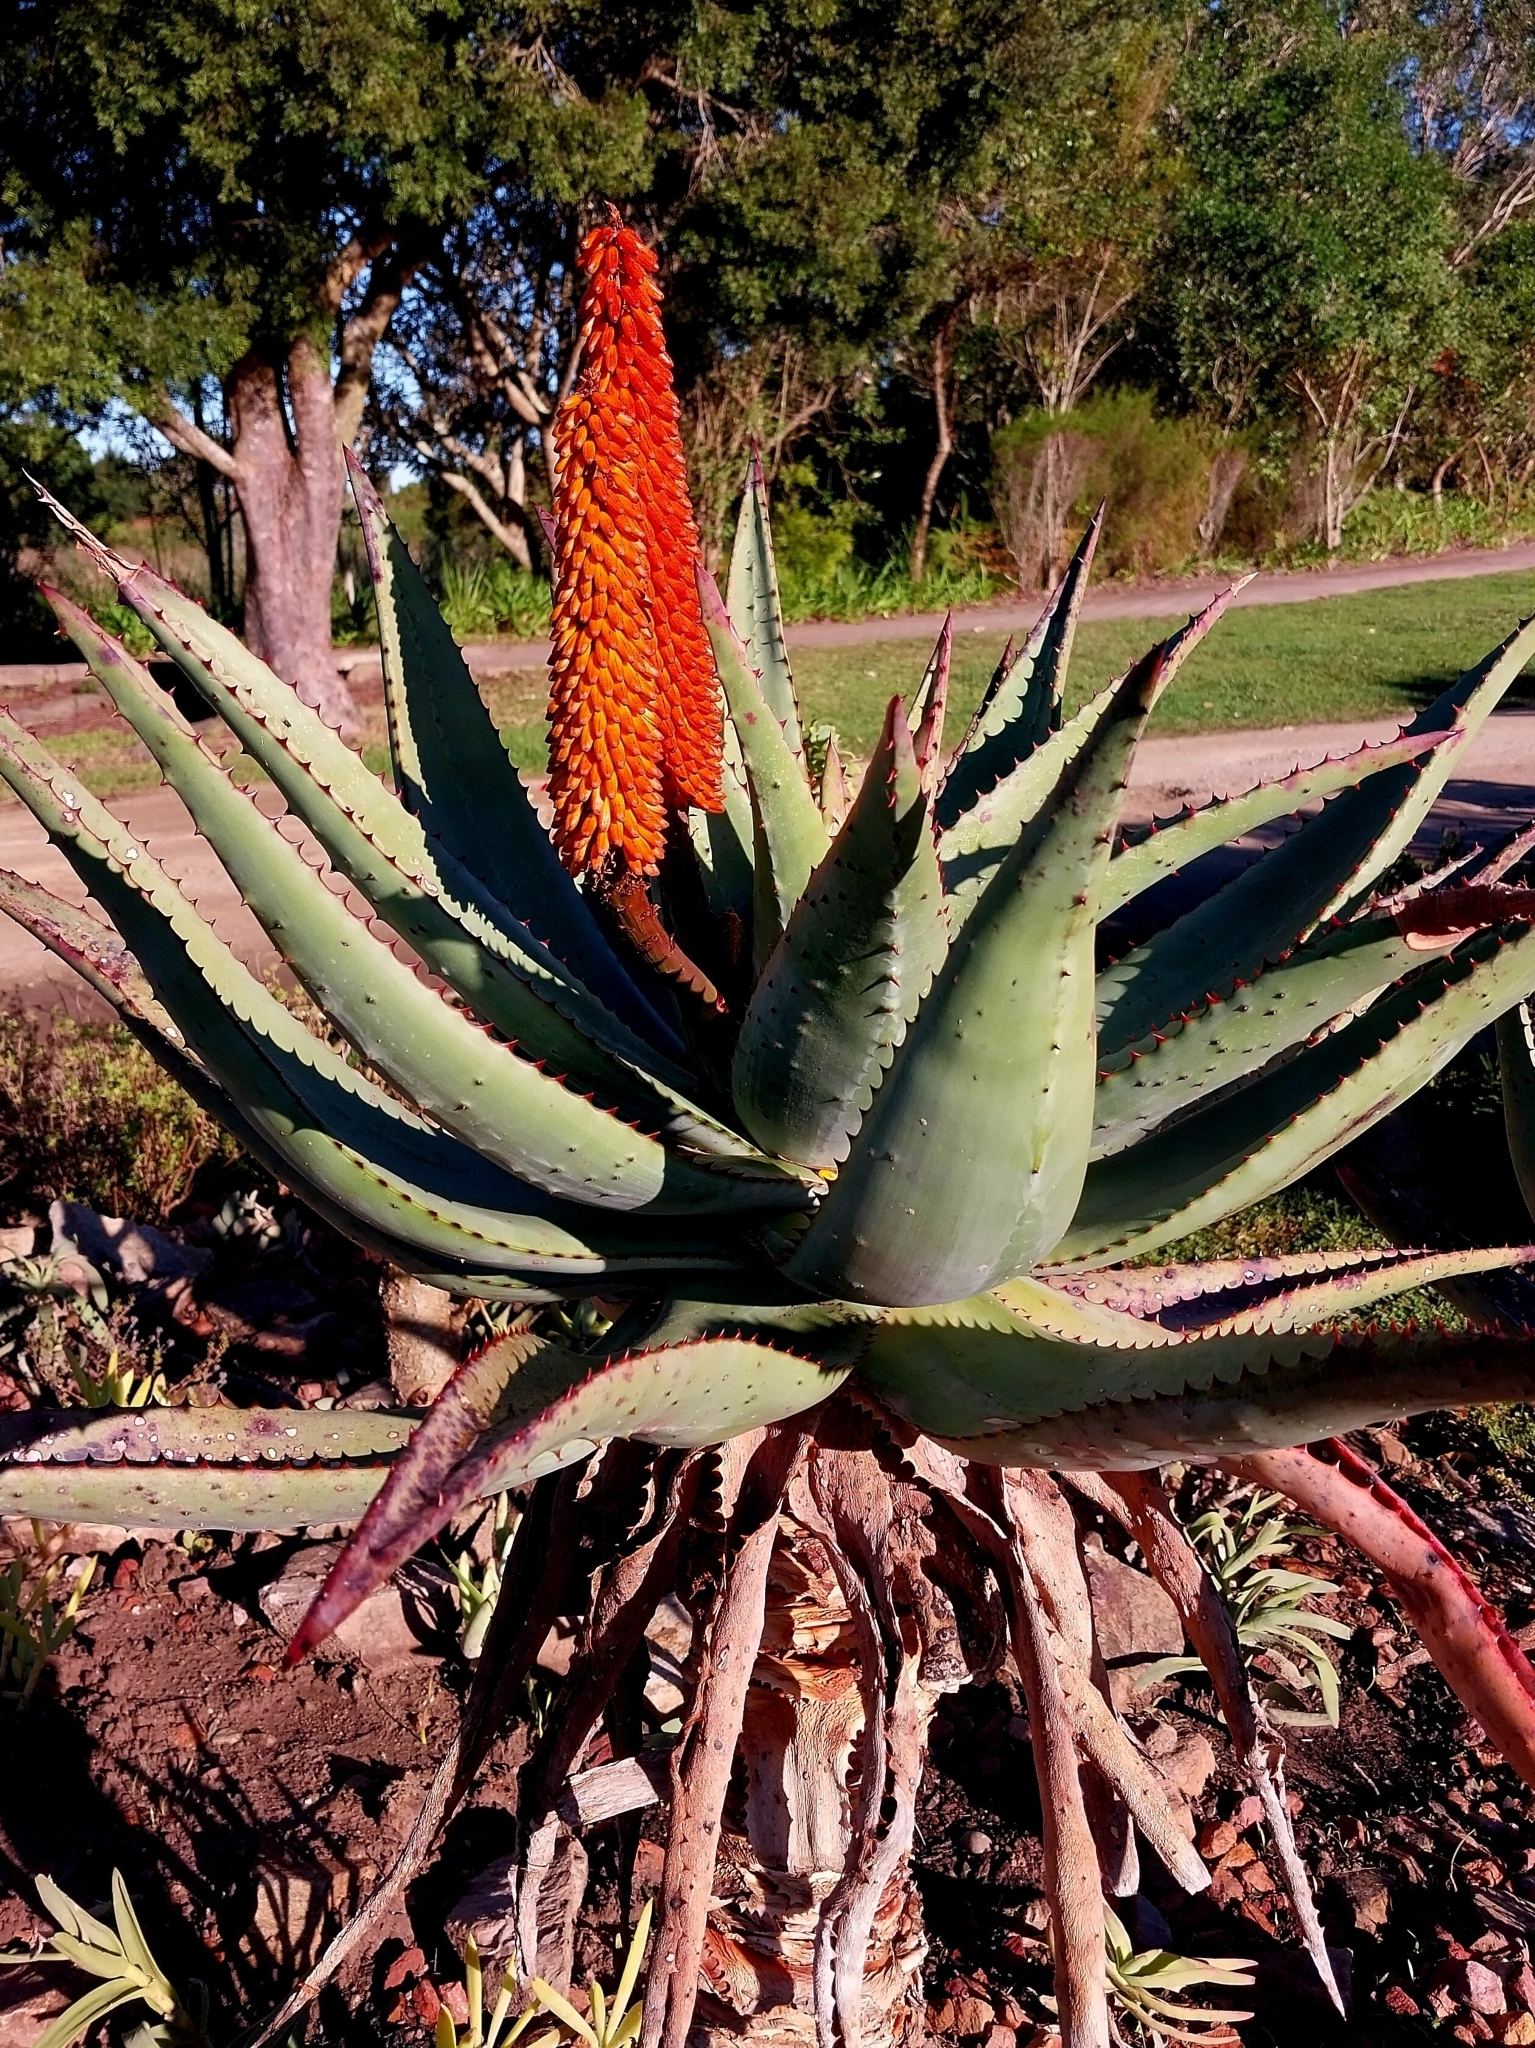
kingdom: Plantae
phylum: Tracheophyta
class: Liliopsida
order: Asparagales
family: Asphodelaceae
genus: Aloe
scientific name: Aloe ferox
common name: Bitter aloe
